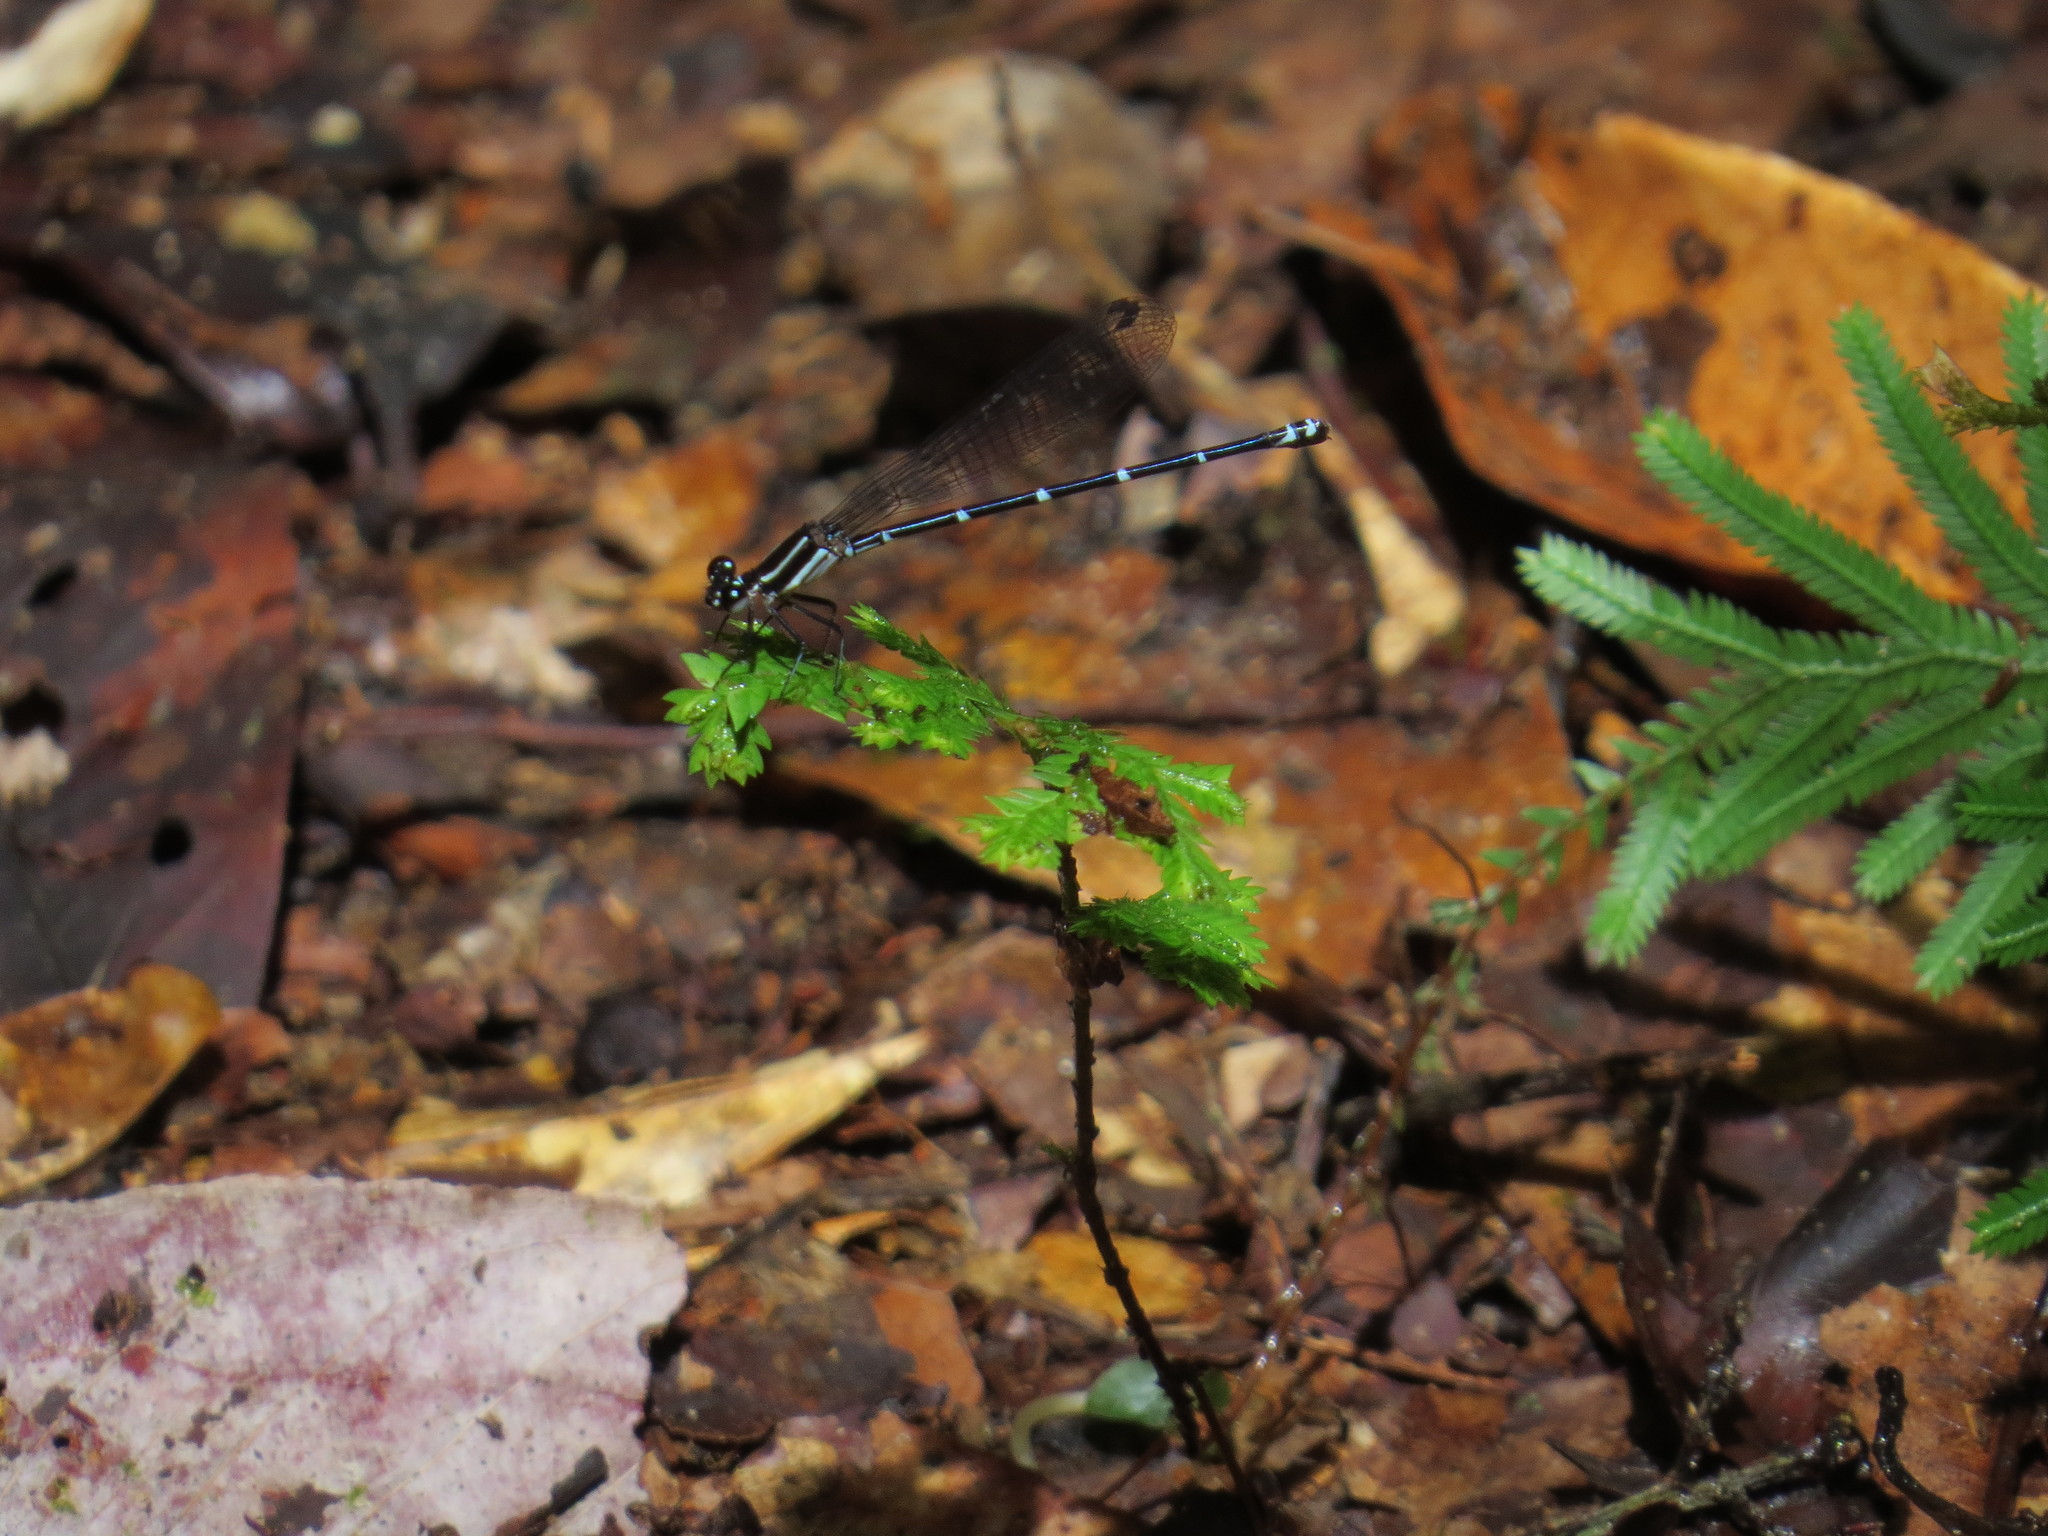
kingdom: Animalia
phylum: Arthropoda
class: Insecta
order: Odonata
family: Coenagrionidae
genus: Argia
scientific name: Argia oculata
